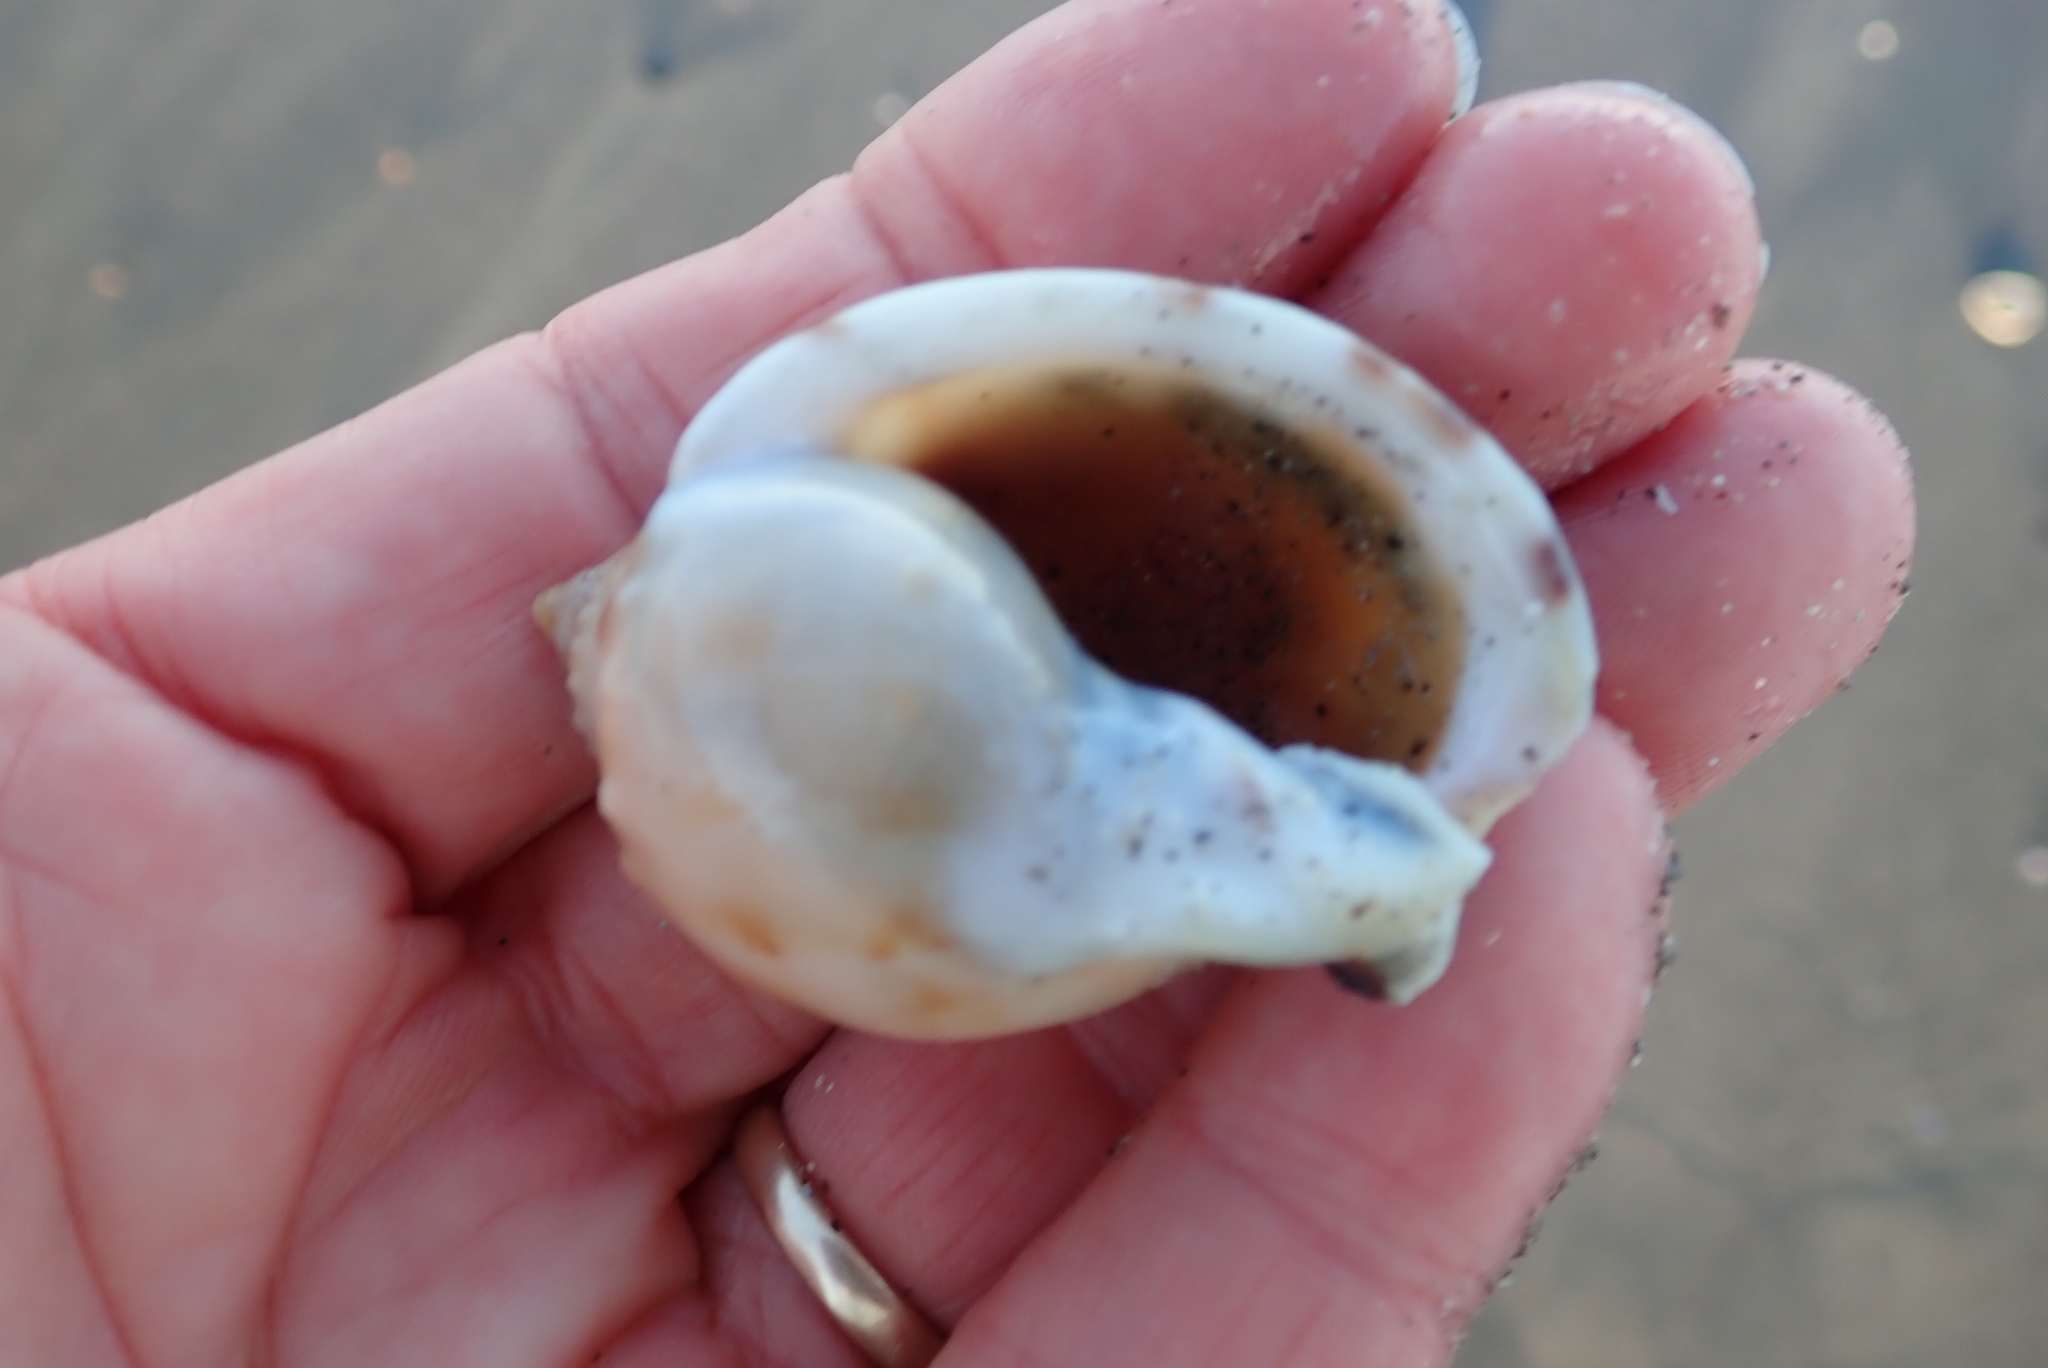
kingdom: Animalia
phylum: Mollusca
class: Gastropoda
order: Littorinimorpha
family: Cassidae
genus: Semicassis
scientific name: Semicassis pyrum
